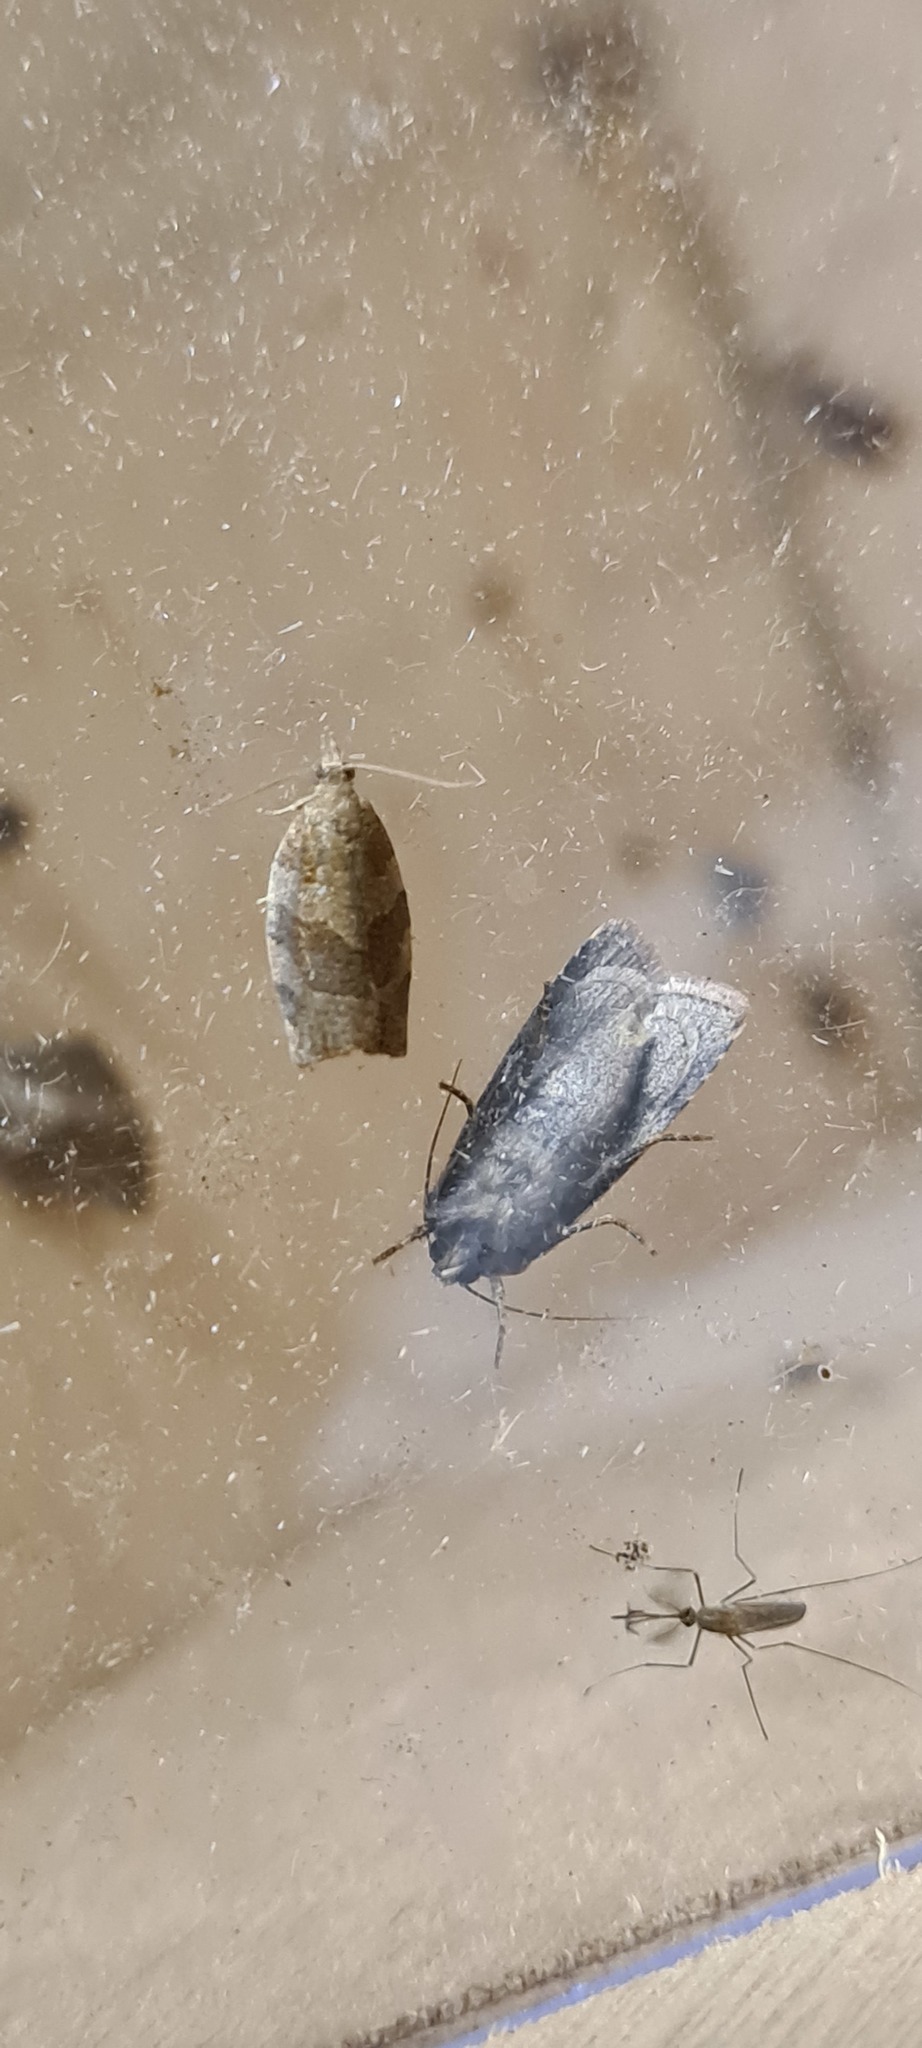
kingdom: Animalia
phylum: Arthropoda
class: Insecta
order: Lepidoptera
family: Tortricidae
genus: Pandemis
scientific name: Pandemis heparana
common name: Dark fruit-tree tortrix
